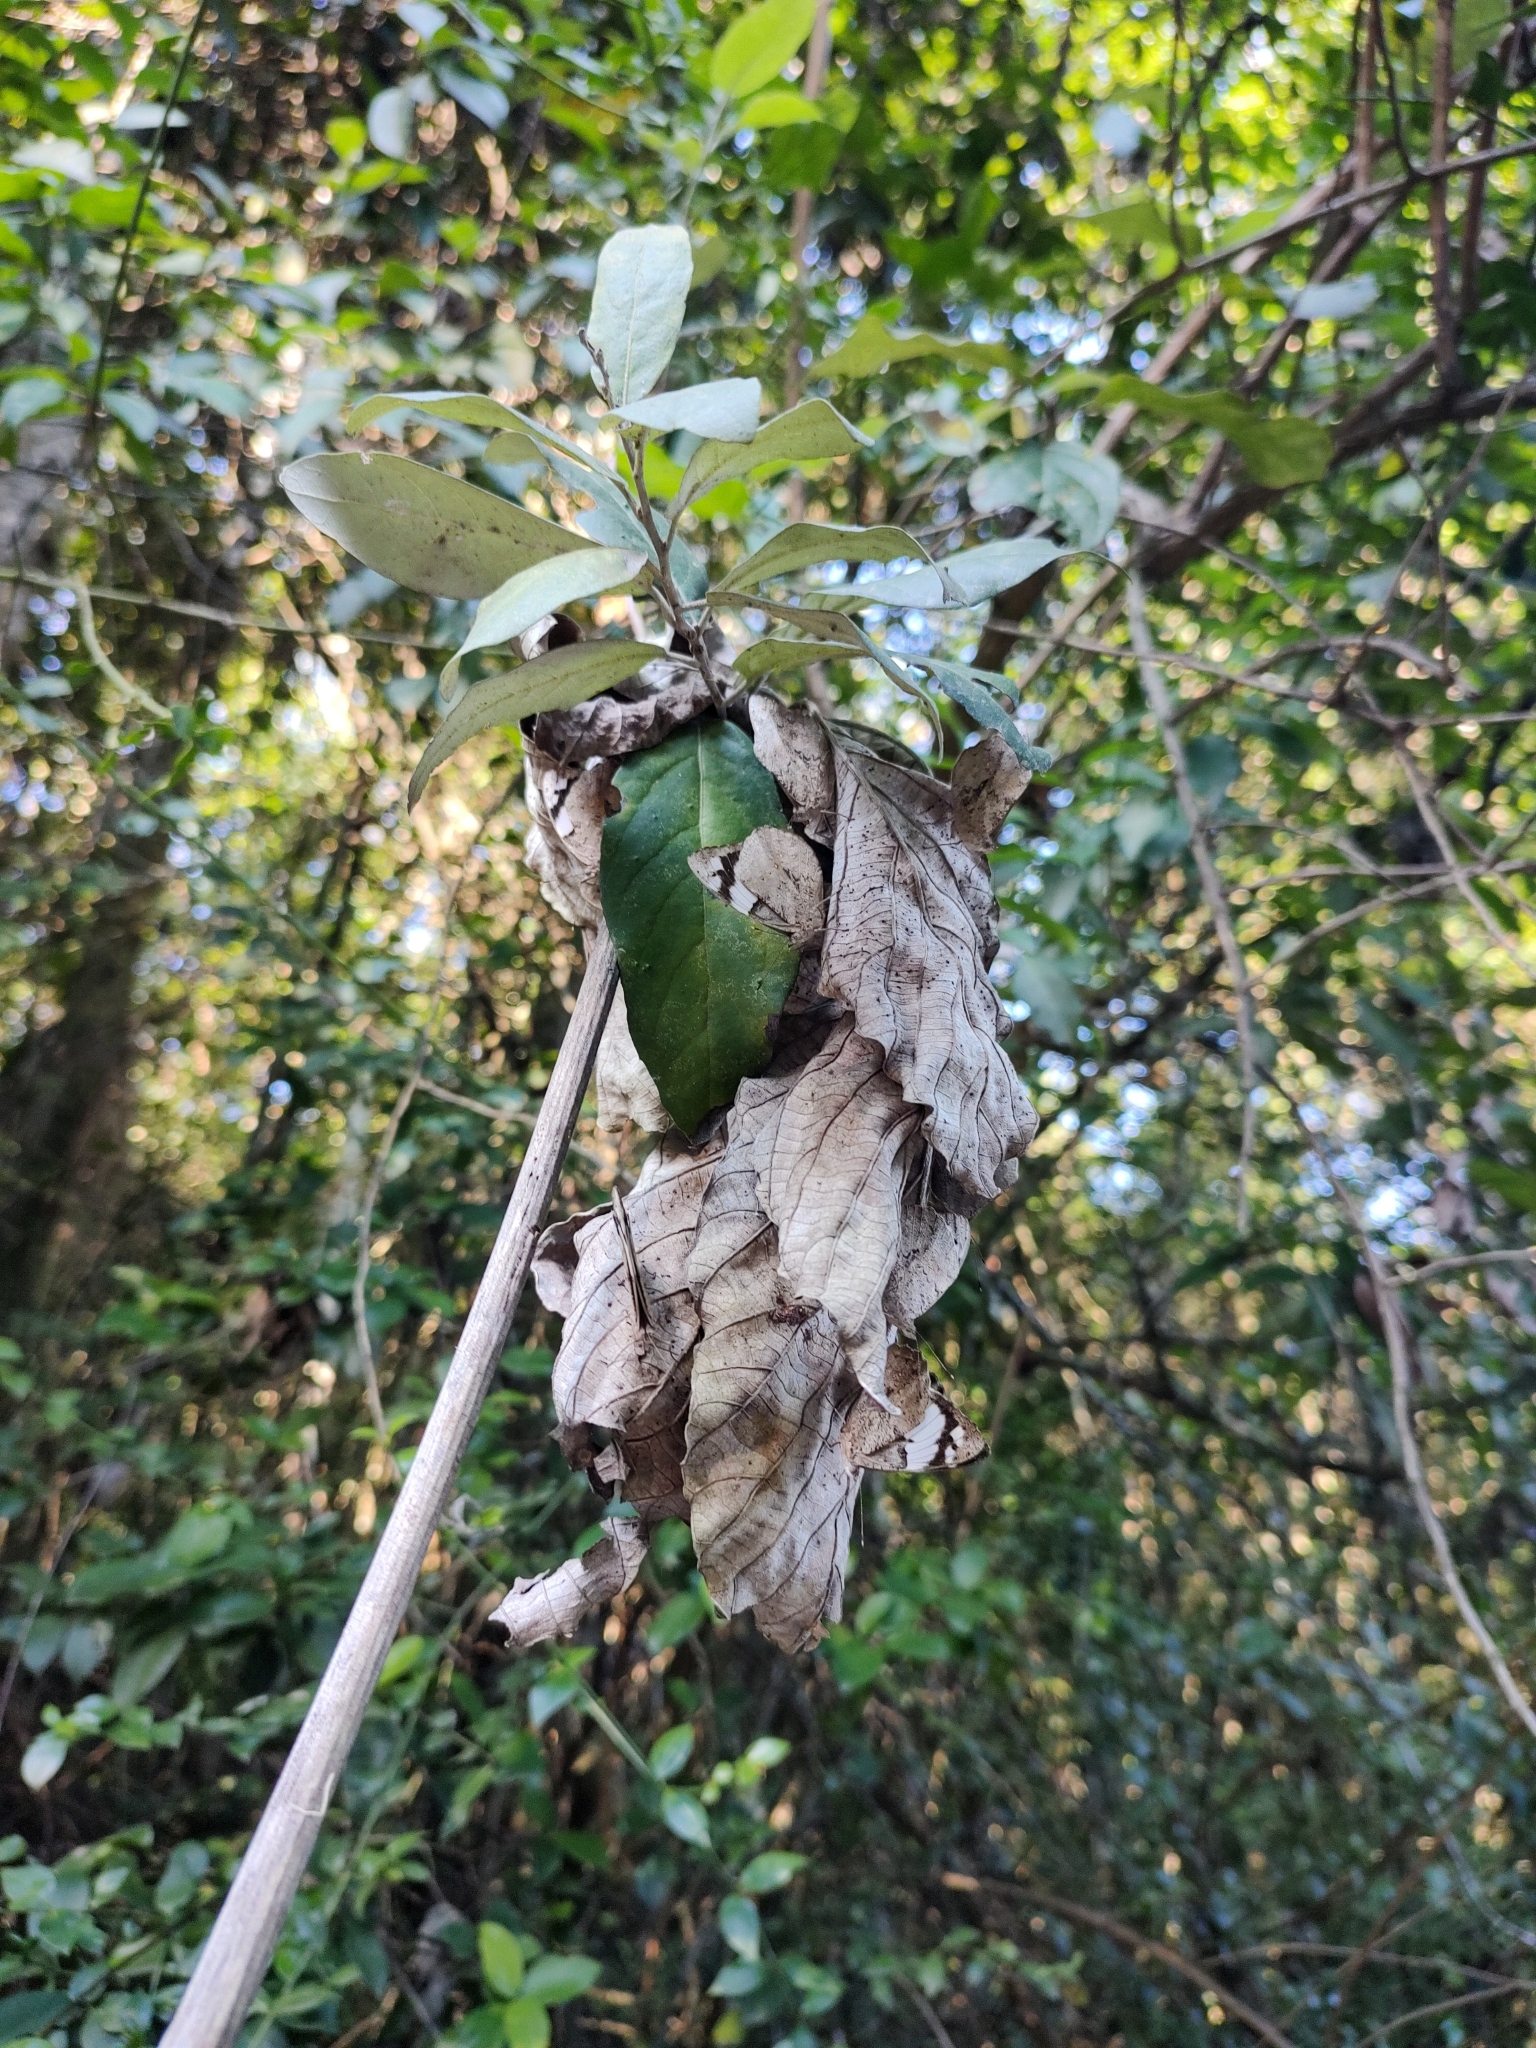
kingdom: Animalia
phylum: Arthropoda
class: Insecta
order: Lepidoptera
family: Nymphalidae
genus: Eunica
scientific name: Eunica eburnea
